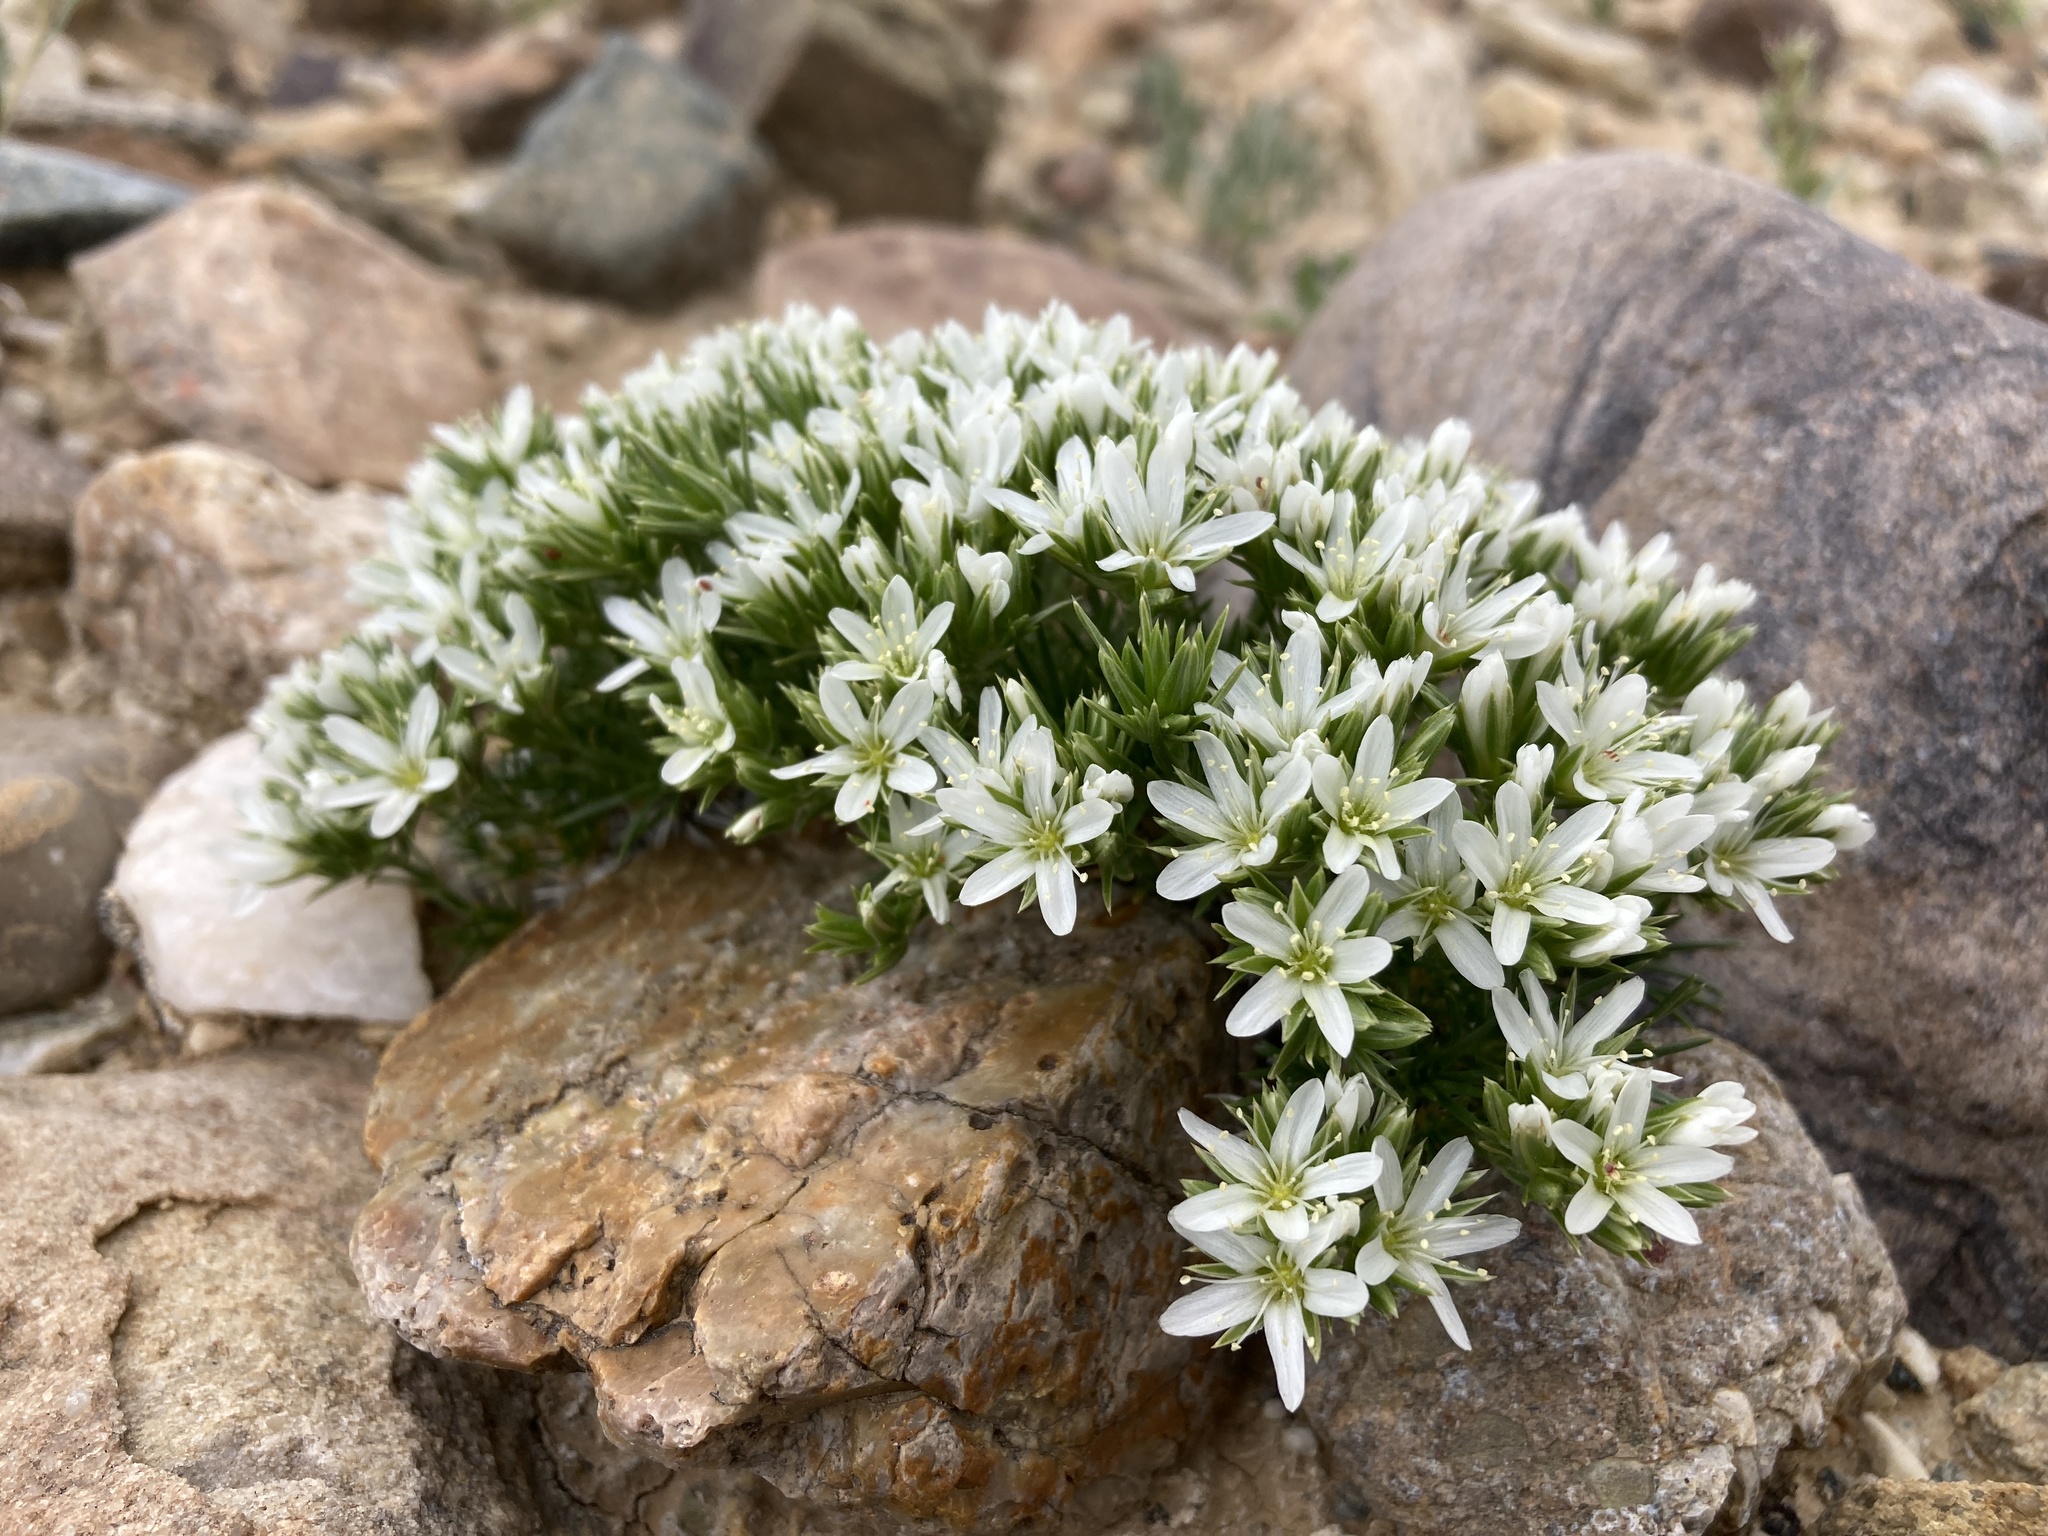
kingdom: Plantae
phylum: Tracheophyta
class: Magnoliopsida
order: Caryophyllales
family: Caryophyllaceae
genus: Eremogone
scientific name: Eremogone hookeri
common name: Hooker's sandwort
